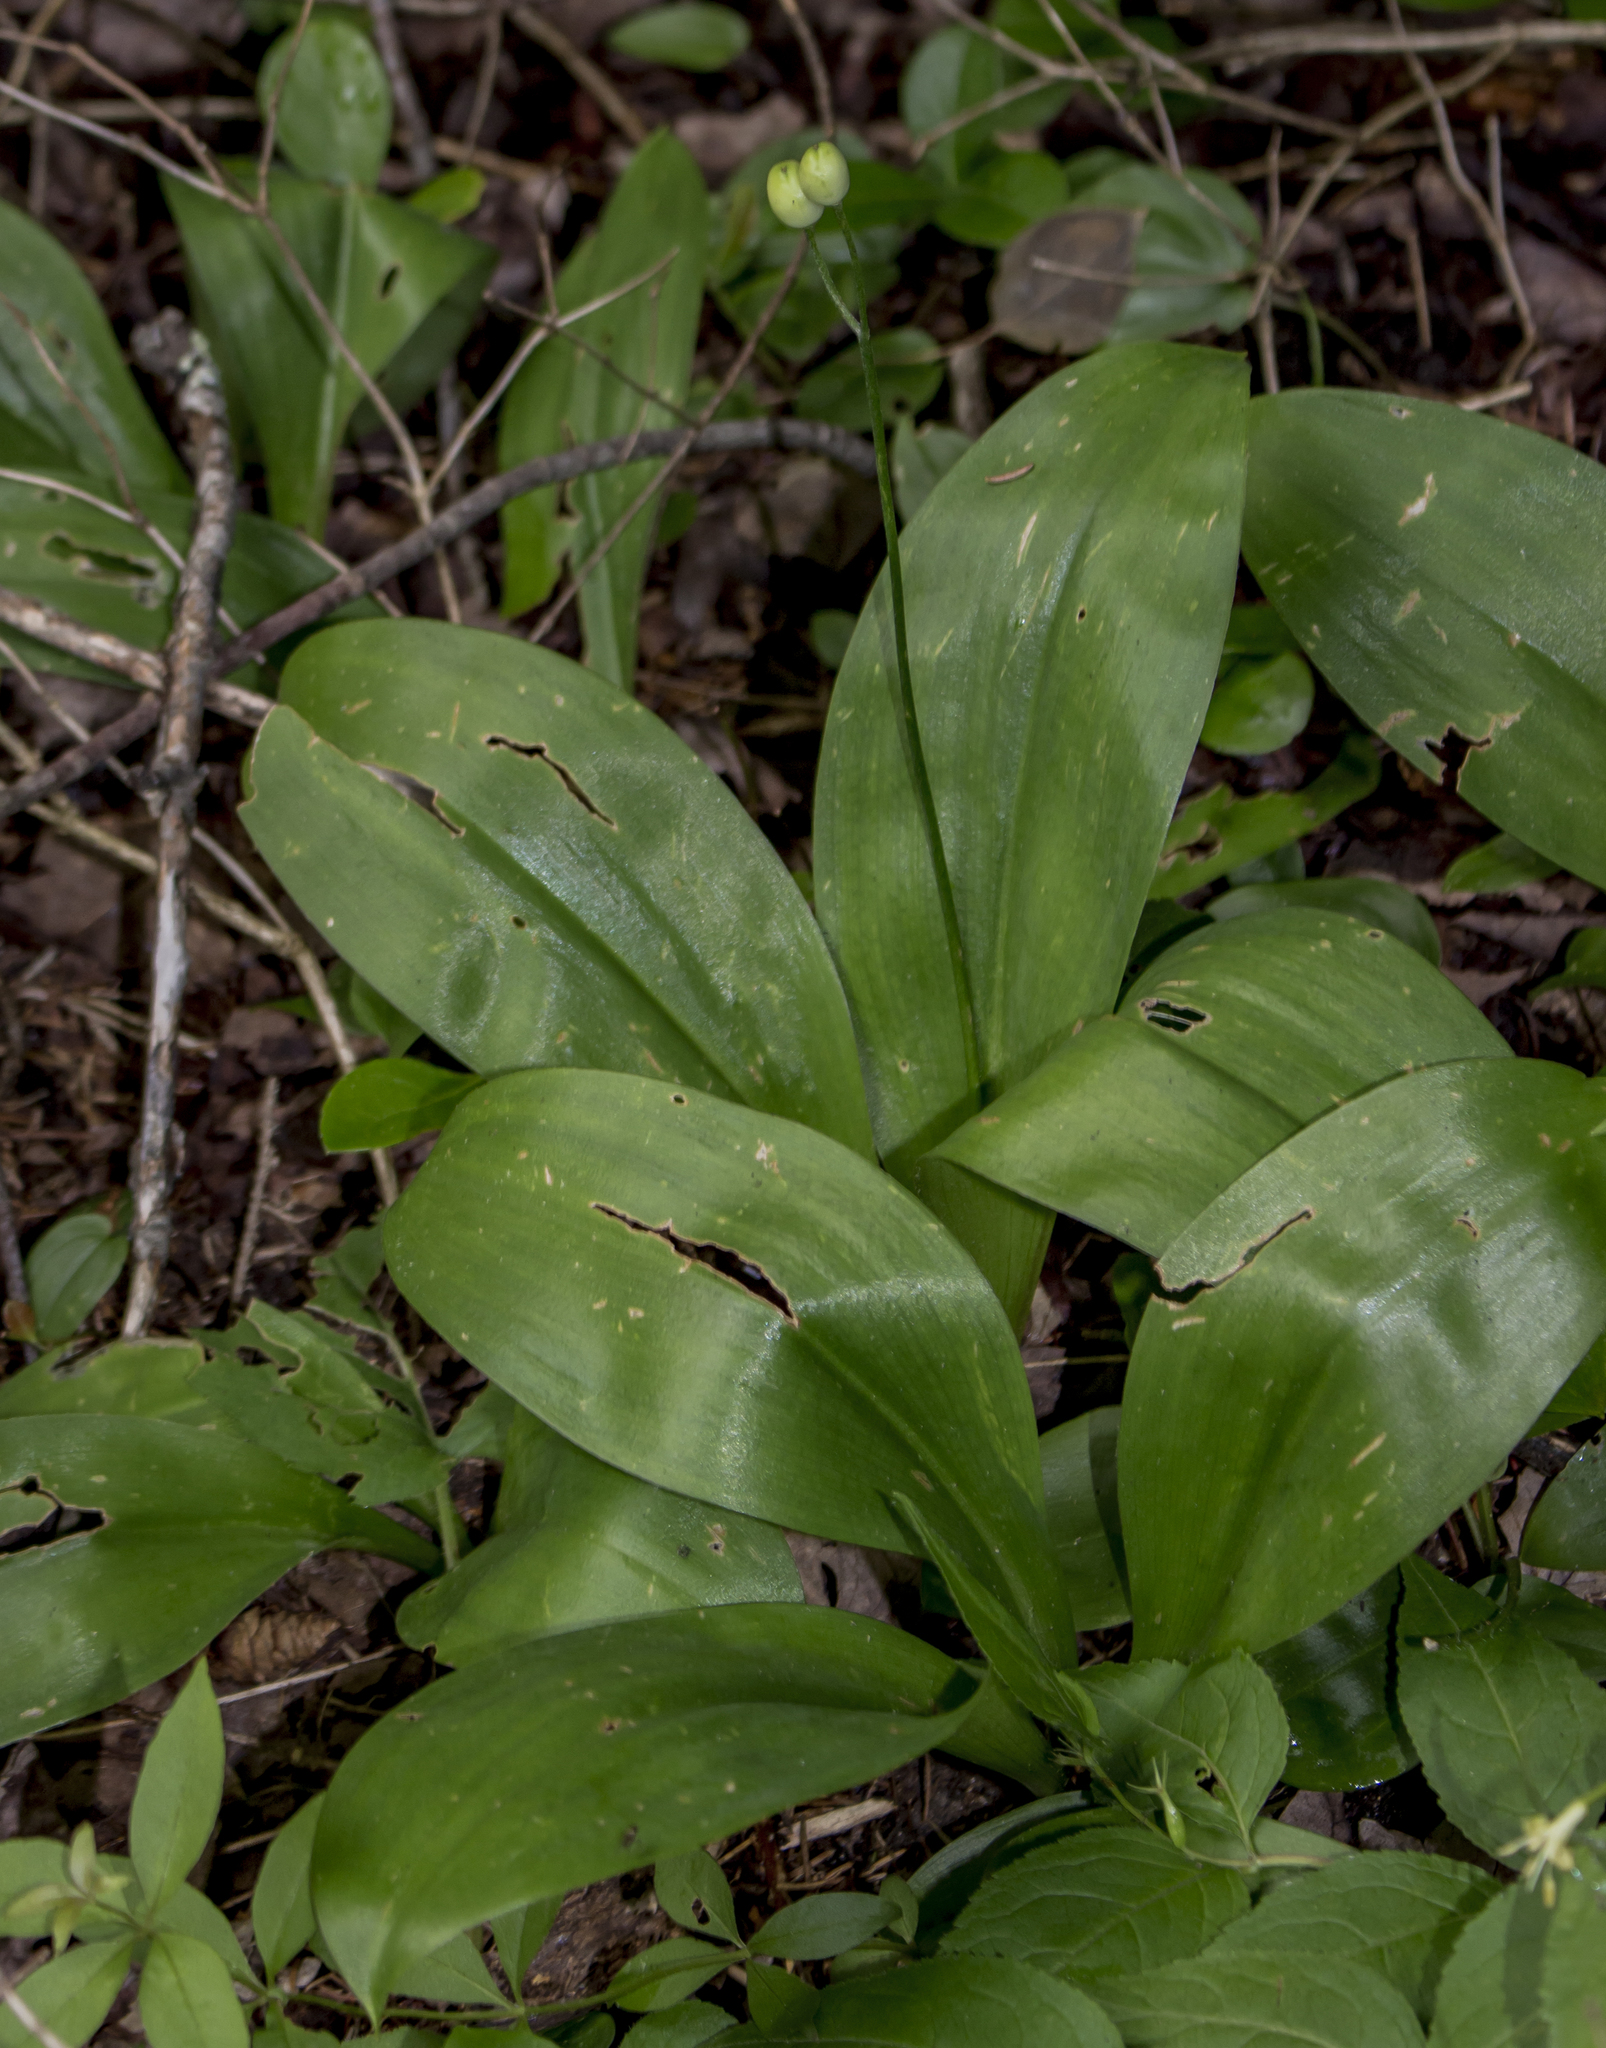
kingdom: Plantae
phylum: Tracheophyta
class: Liliopsida
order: Liliales
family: Liliaceae
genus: Clintonia
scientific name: Clintonia borealis
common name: Yellow clintonia
